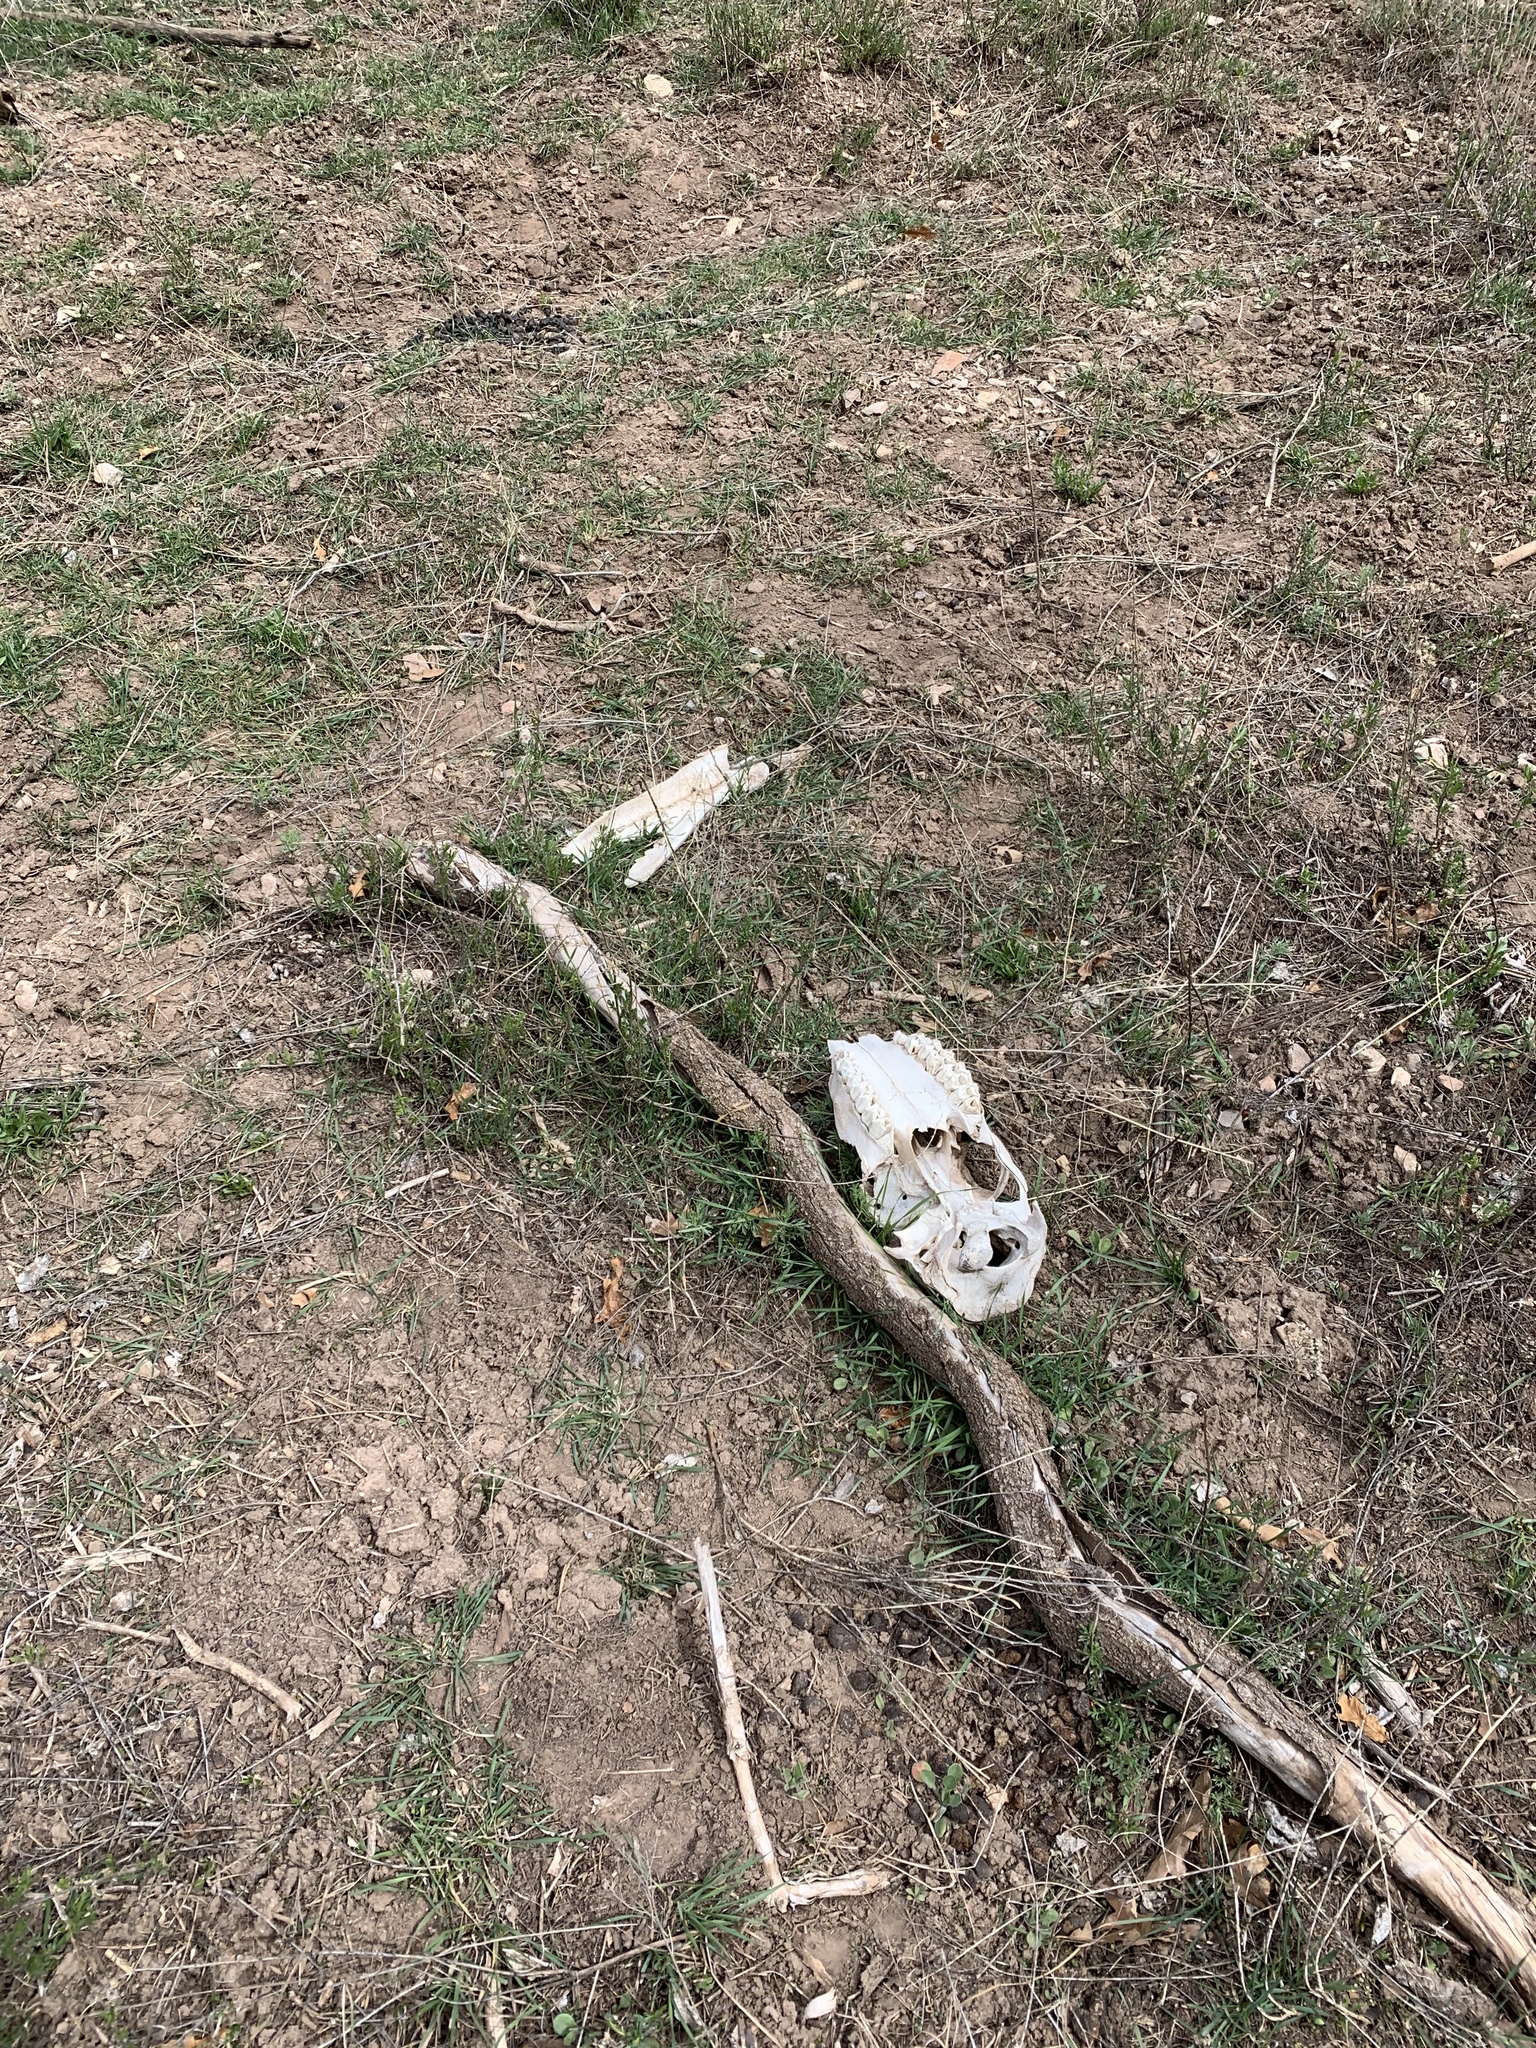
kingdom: Animalia
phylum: Chordata
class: Mammalia
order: Artiodactyla
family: Cervidae
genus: Cervus
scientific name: Cervus elaphus
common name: Red deer
